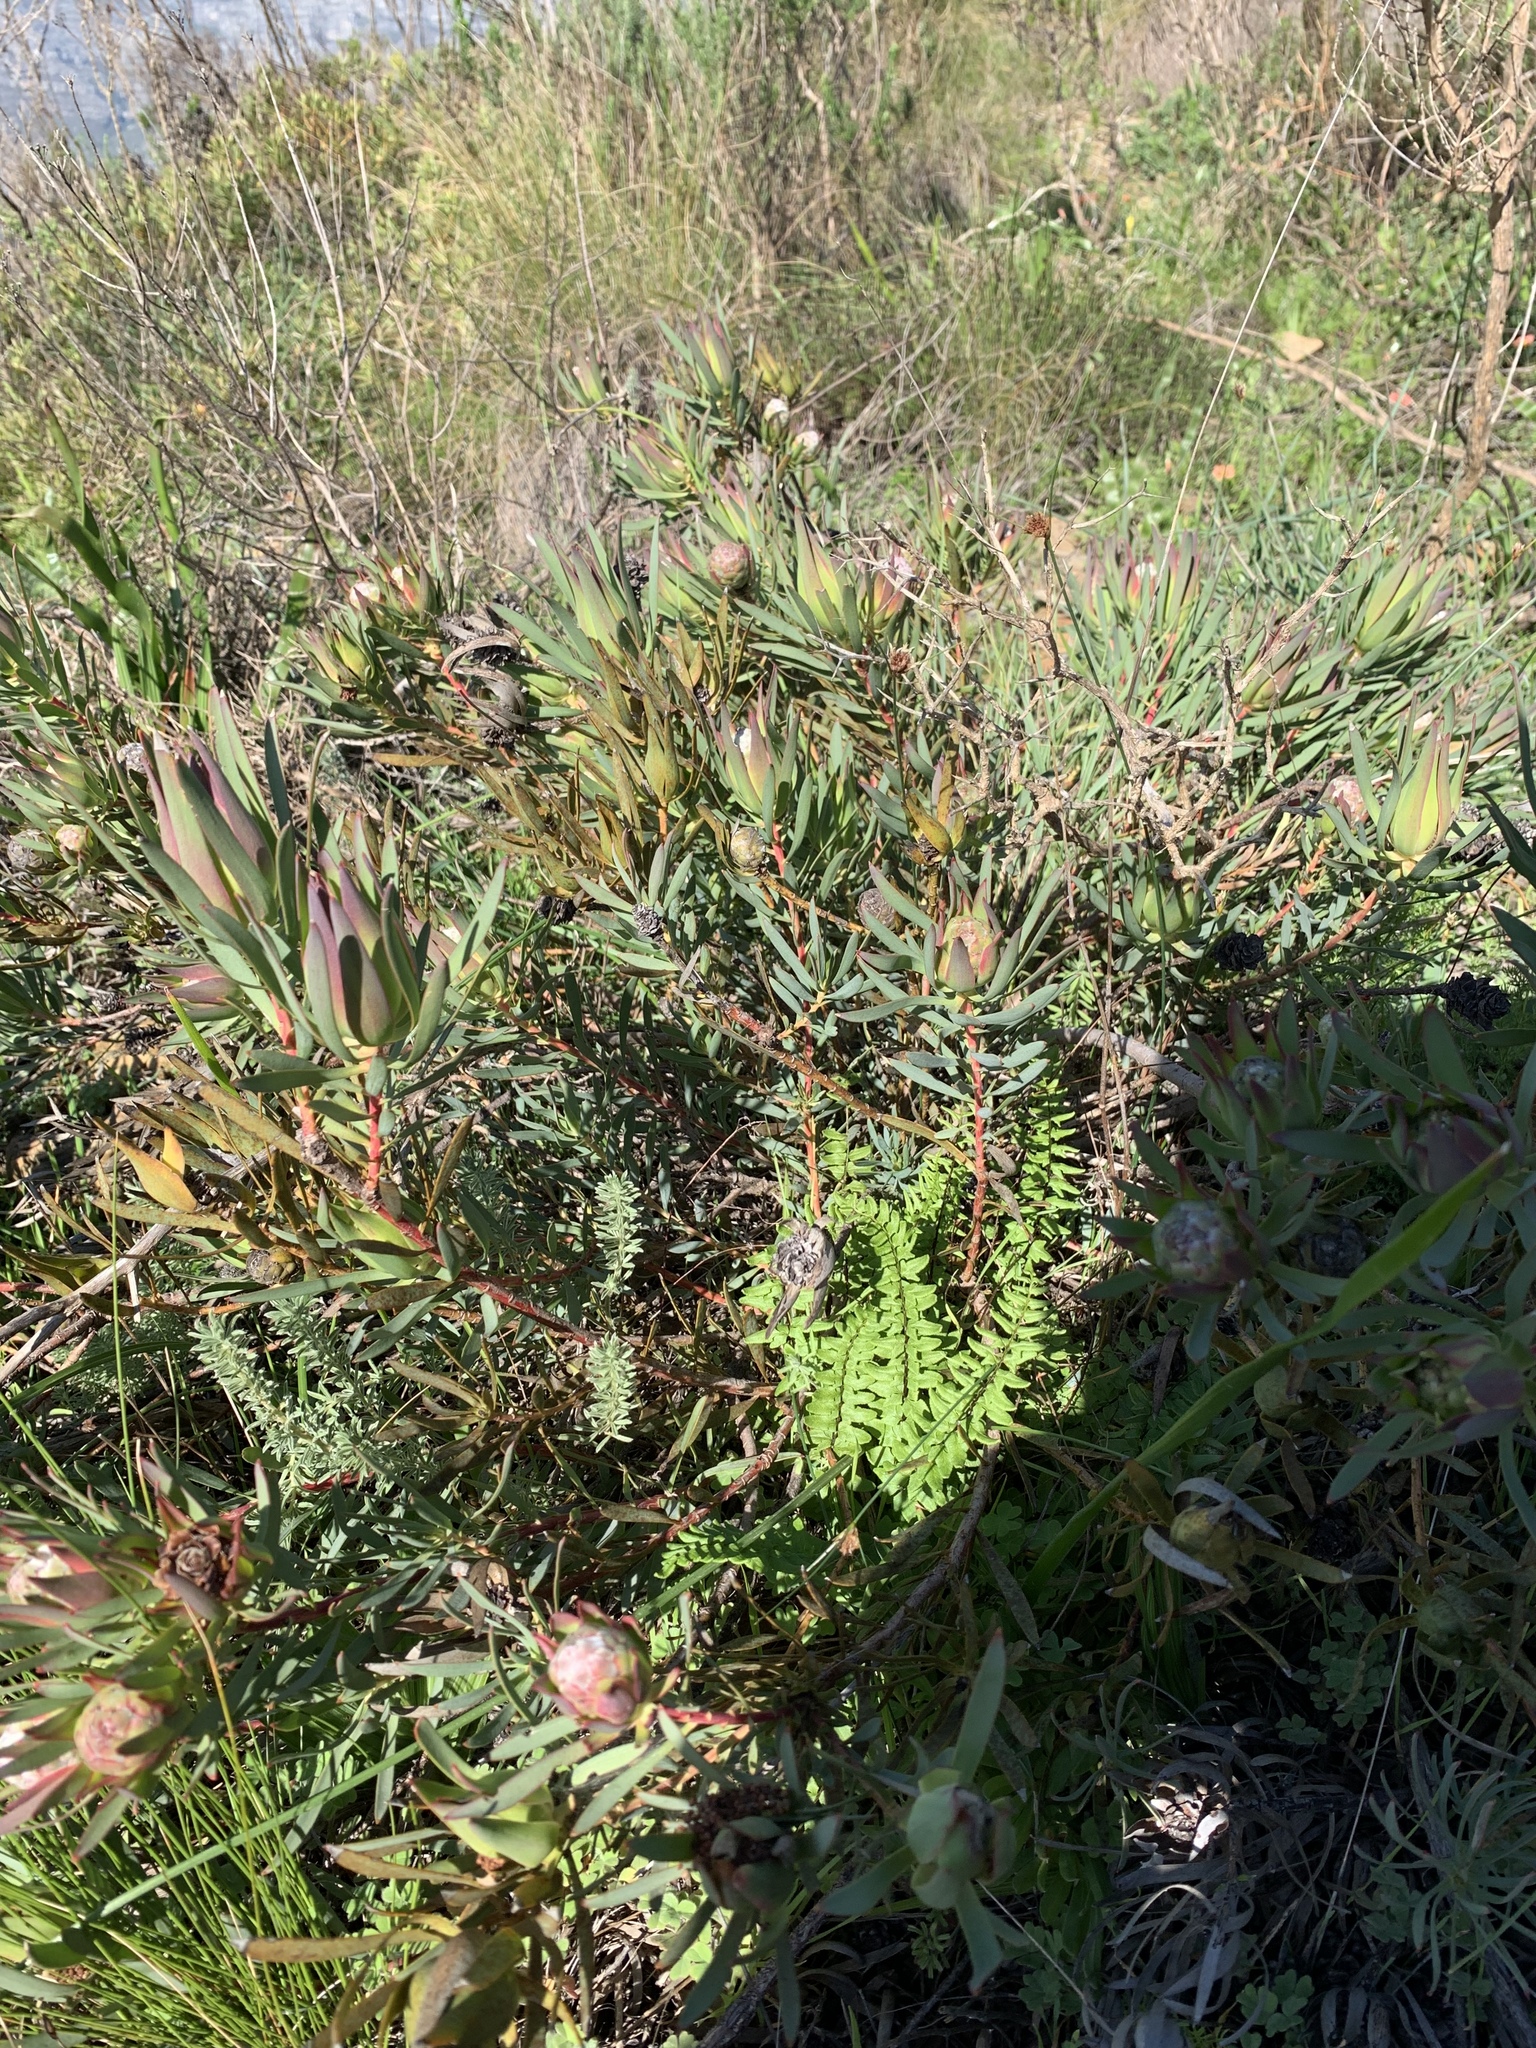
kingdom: Plantae
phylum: Tracheophyta
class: Magnoliopsida
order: Proteales
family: Proteaceae
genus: Leucadendron
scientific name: Leucadendron salignum
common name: Common sunshine conebush
